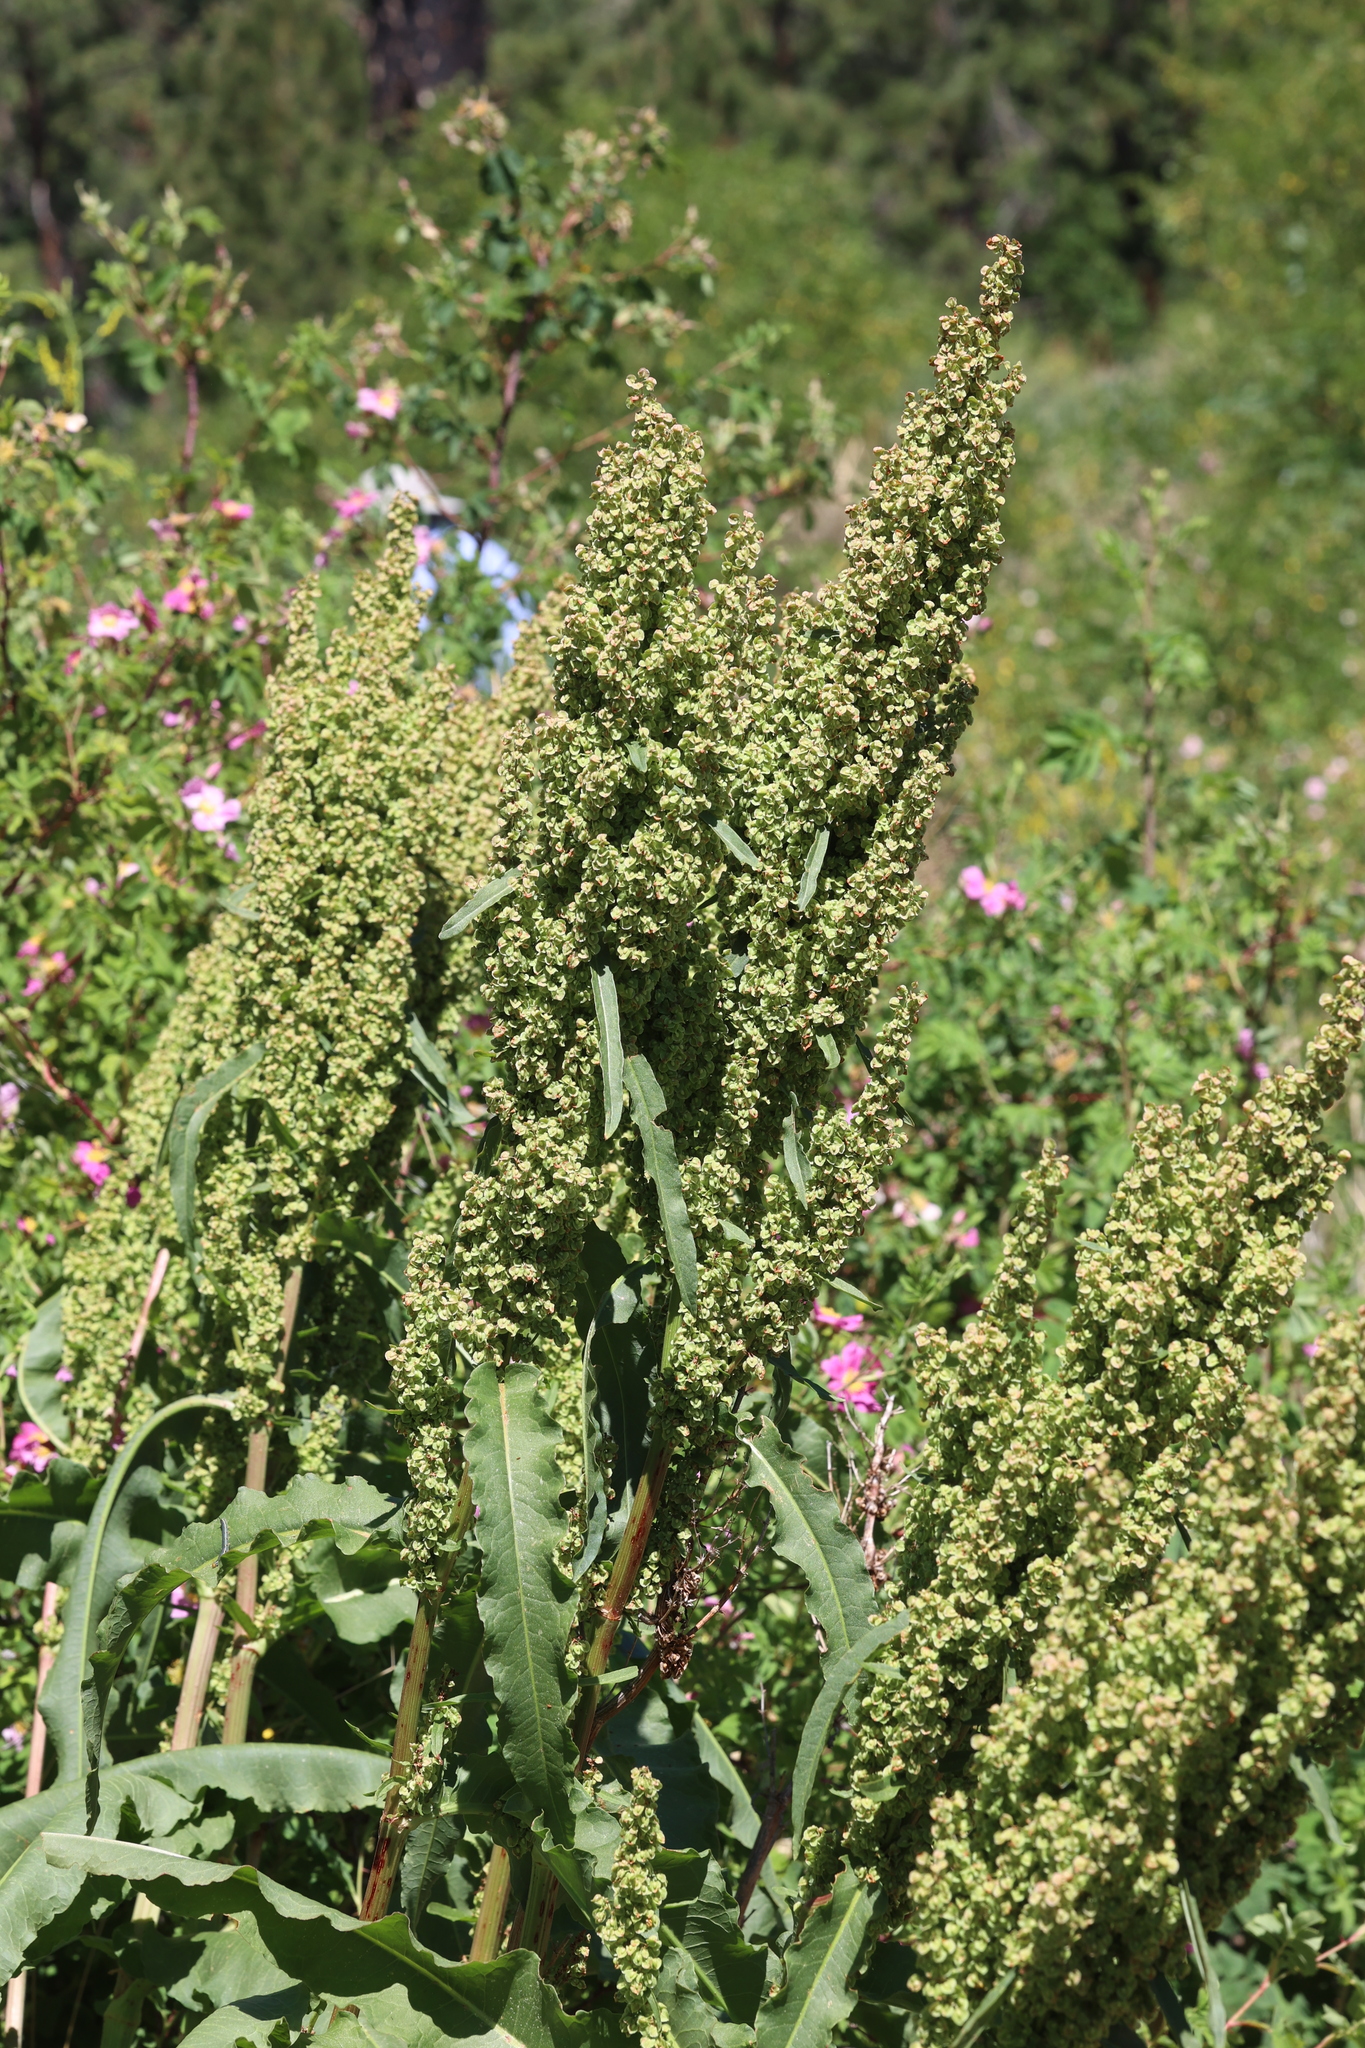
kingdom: Plantae
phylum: Tracheophyta
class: Magnoliopsida
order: Caryophyllales
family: Polygonaceae
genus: Rumex
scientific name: Rumex crispus
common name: Curled dock
